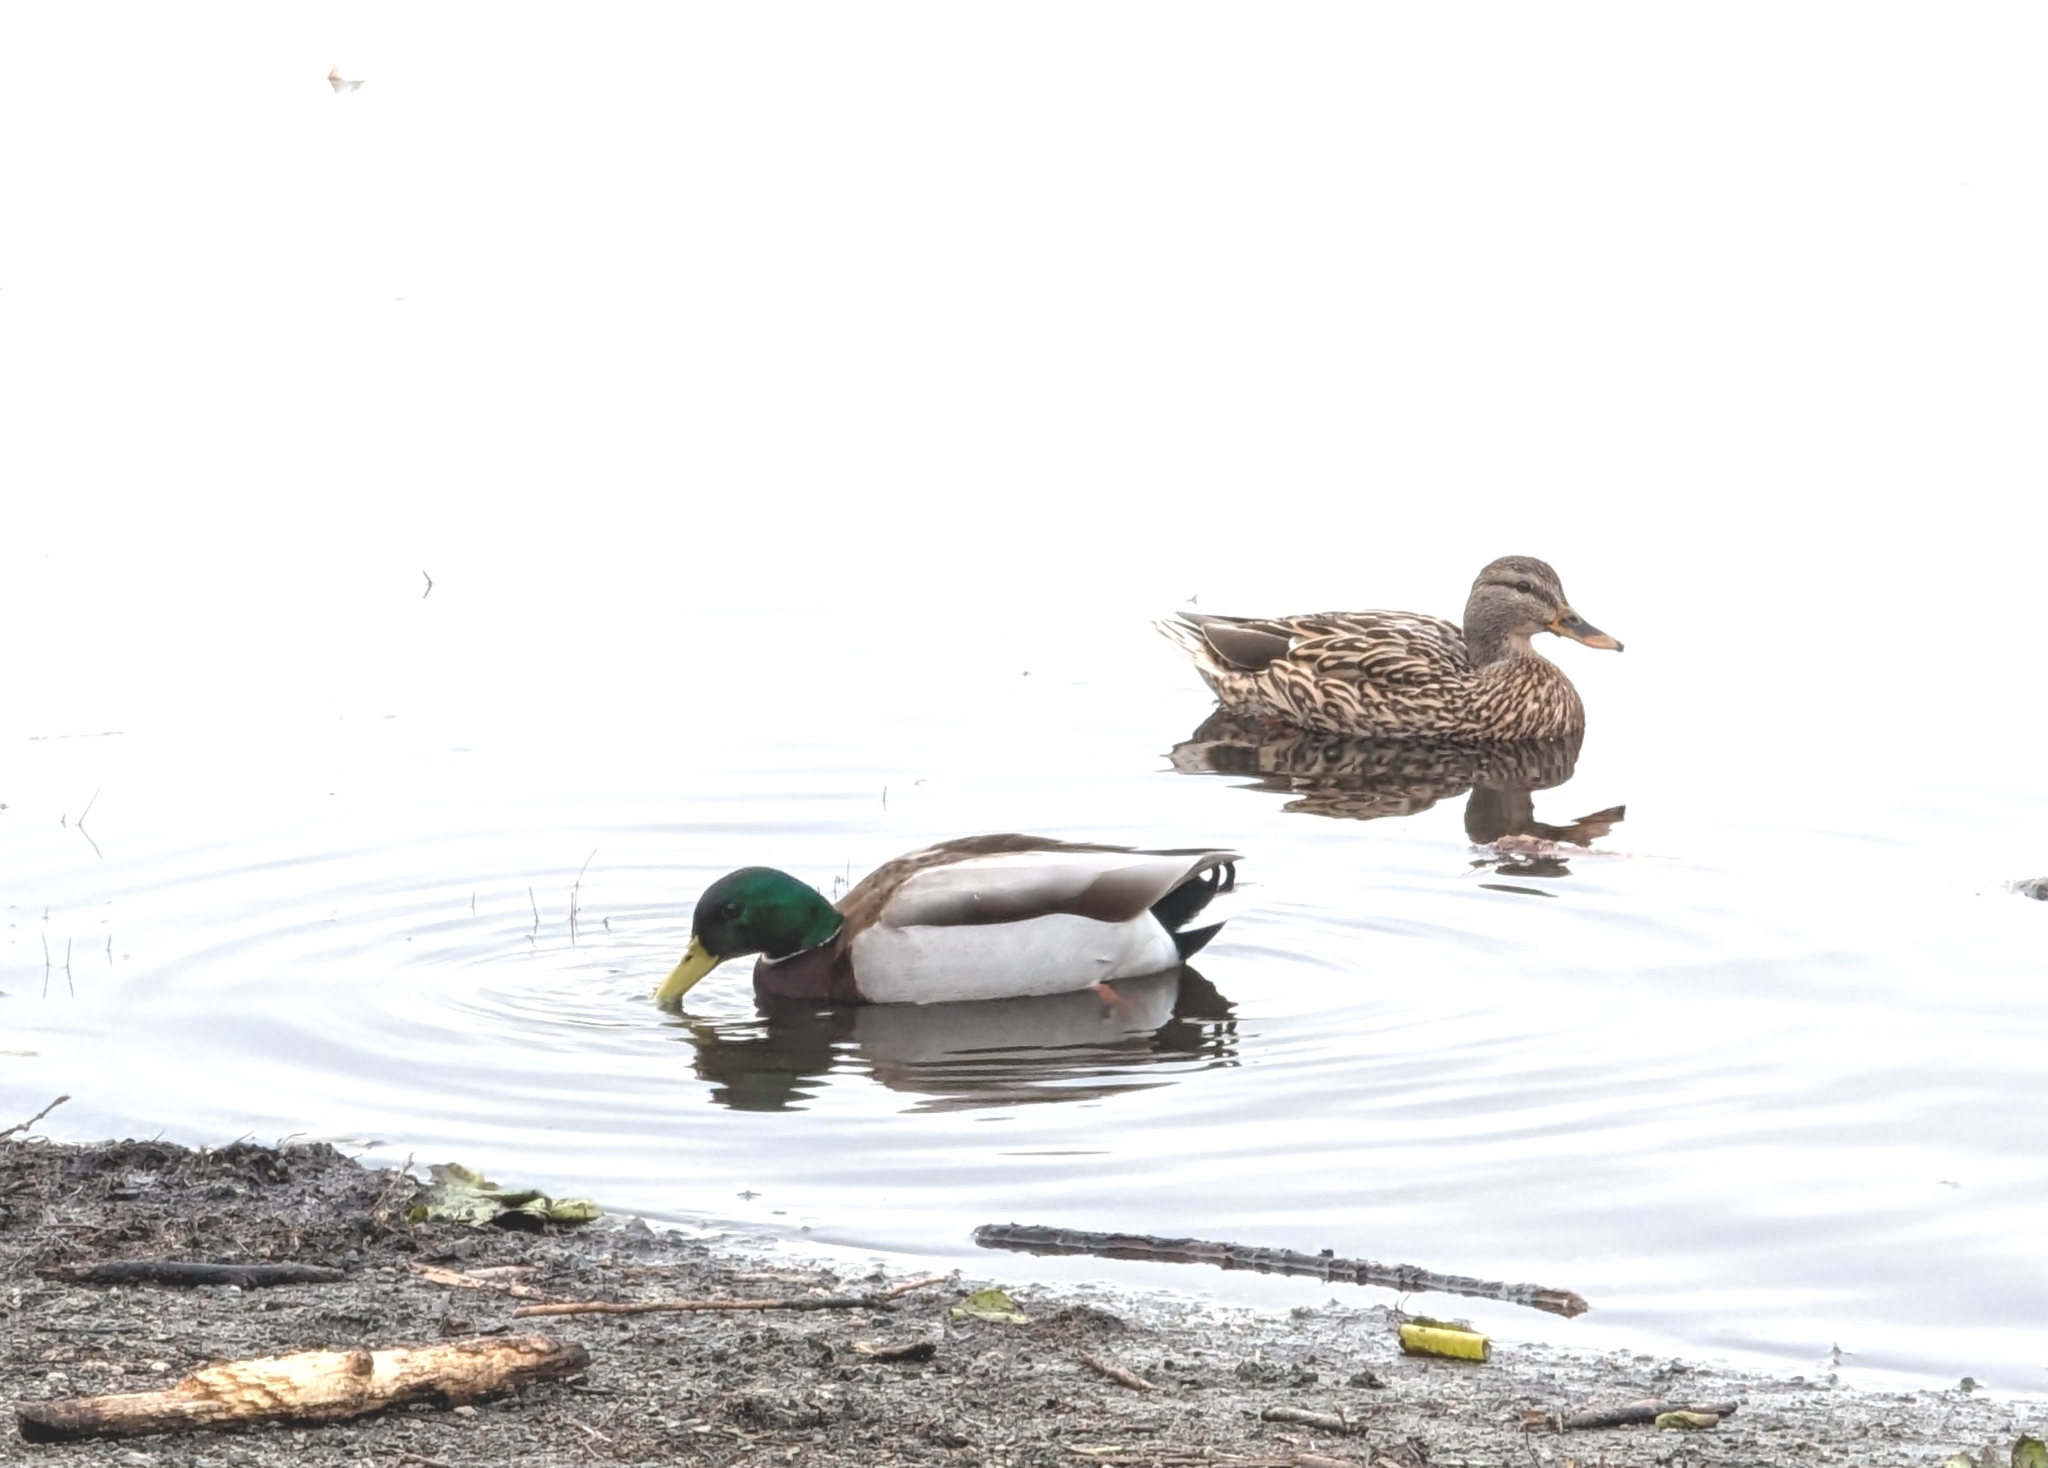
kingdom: Animalia
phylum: Chordata
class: Aves
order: Anseriformes
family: Anatidae
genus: Anas
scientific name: Anas platyrhynchos
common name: Mallard
